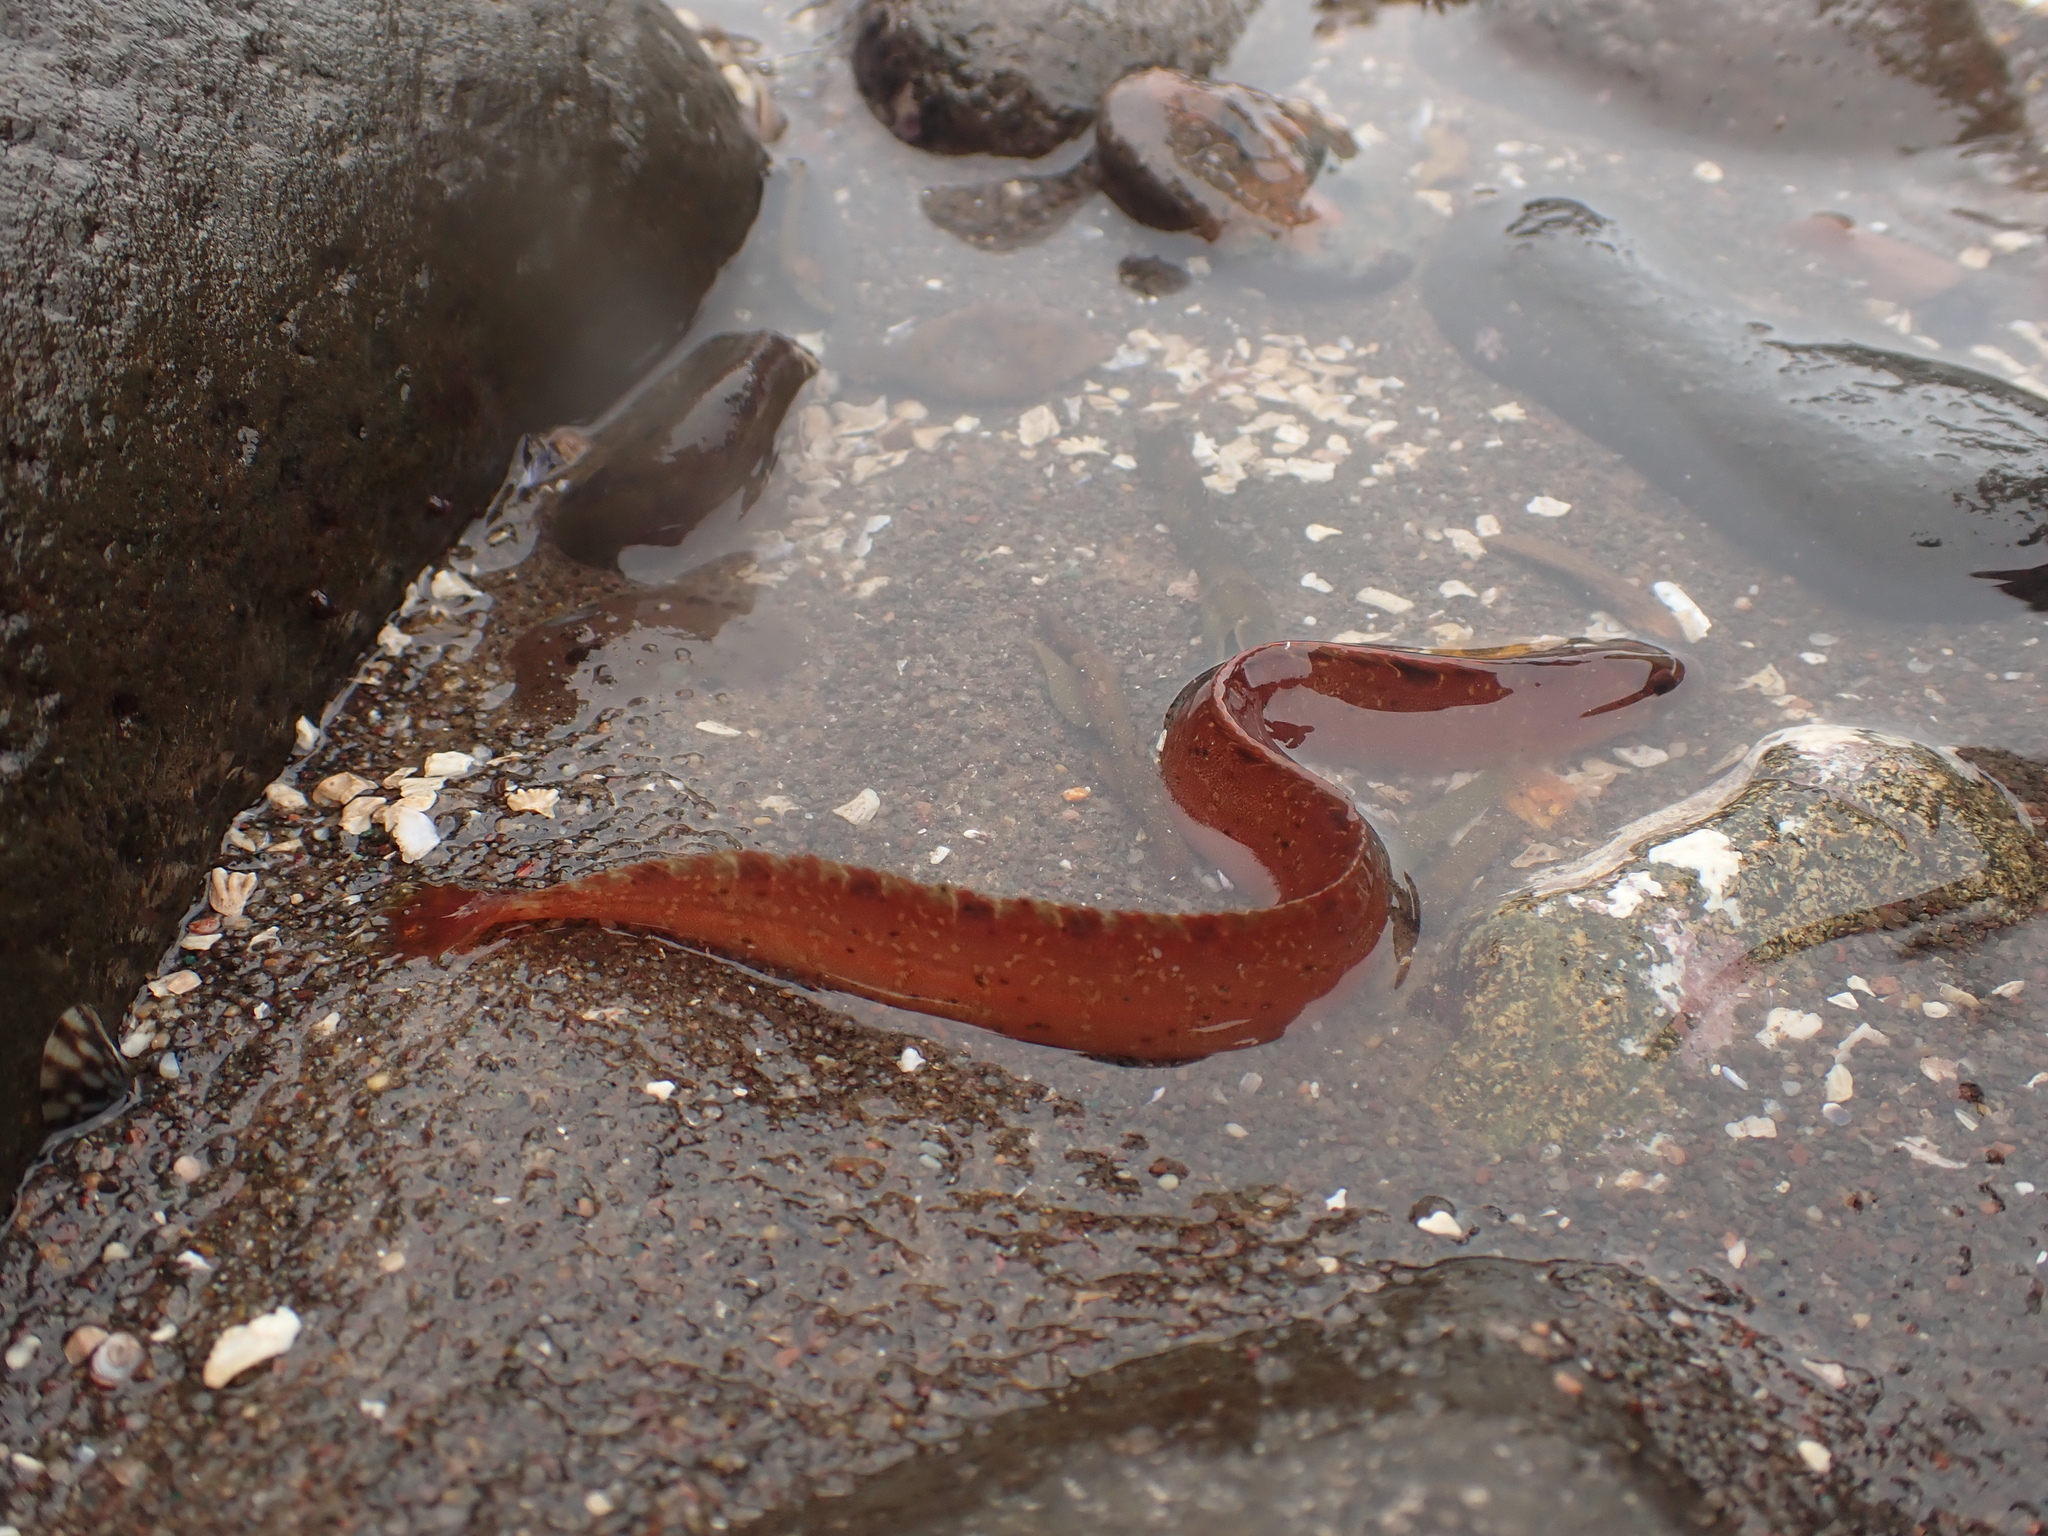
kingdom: Animalia
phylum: Chordata
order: Perciformes
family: Pholidae
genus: Pholis
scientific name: Pholis gunnellus
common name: Butterfish
